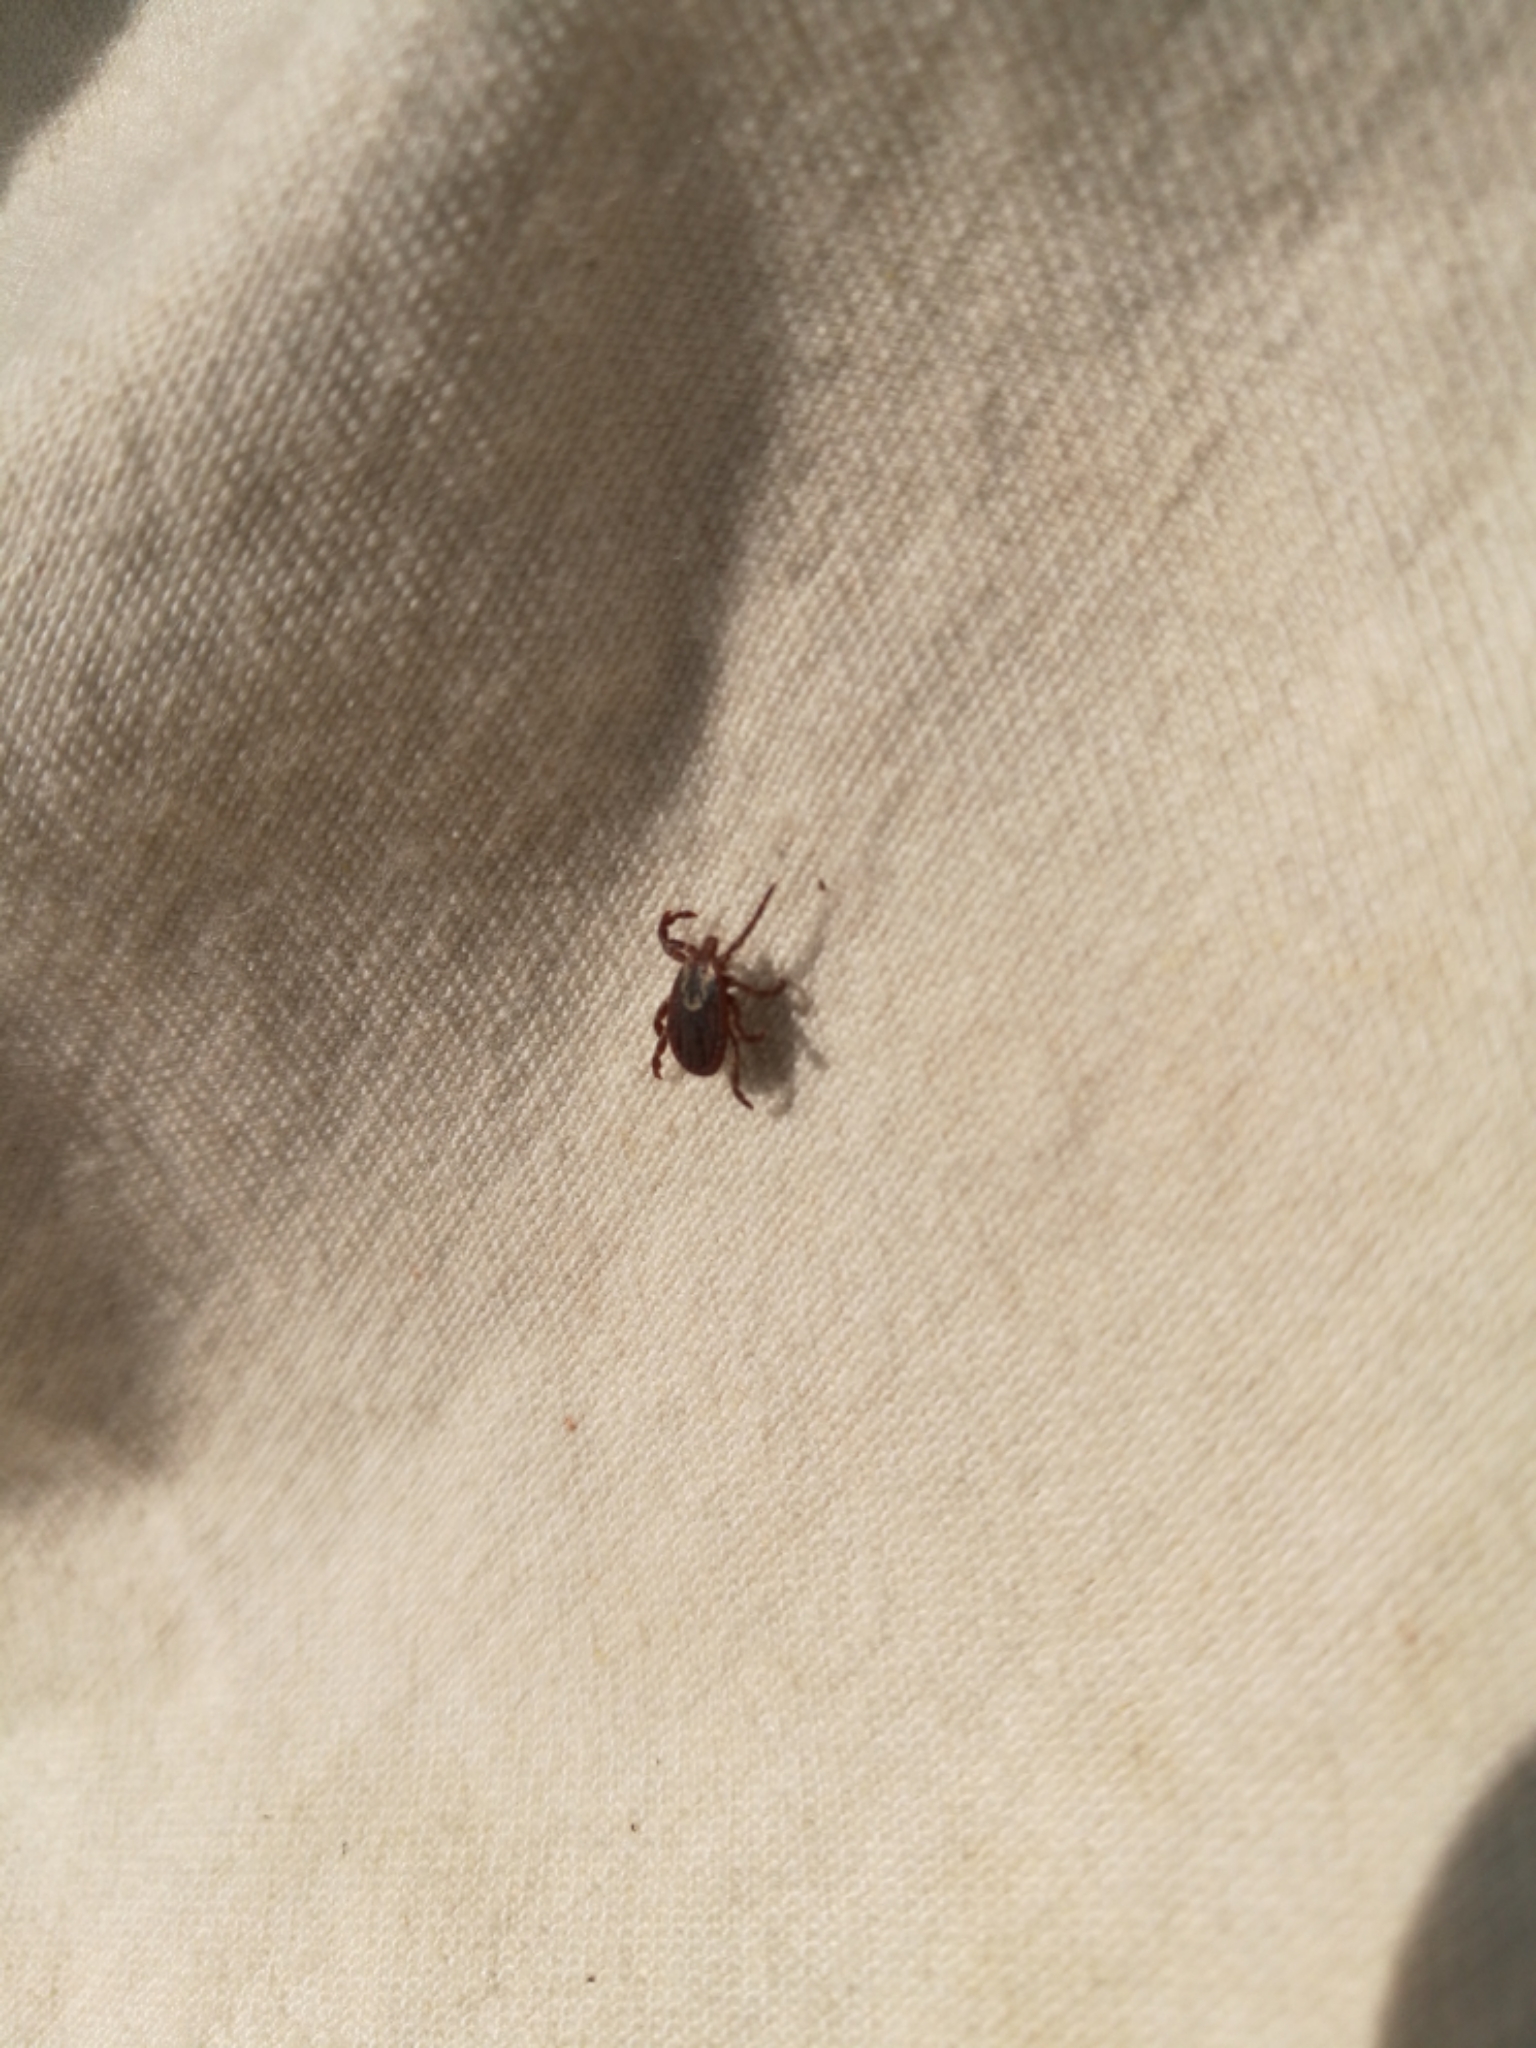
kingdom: Animalia
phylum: Arthropoda
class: Arachnida
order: Ixodida
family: Ixodidae
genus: Dermacentor
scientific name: Dermacentor marginatus
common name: Ornate sheep tick
